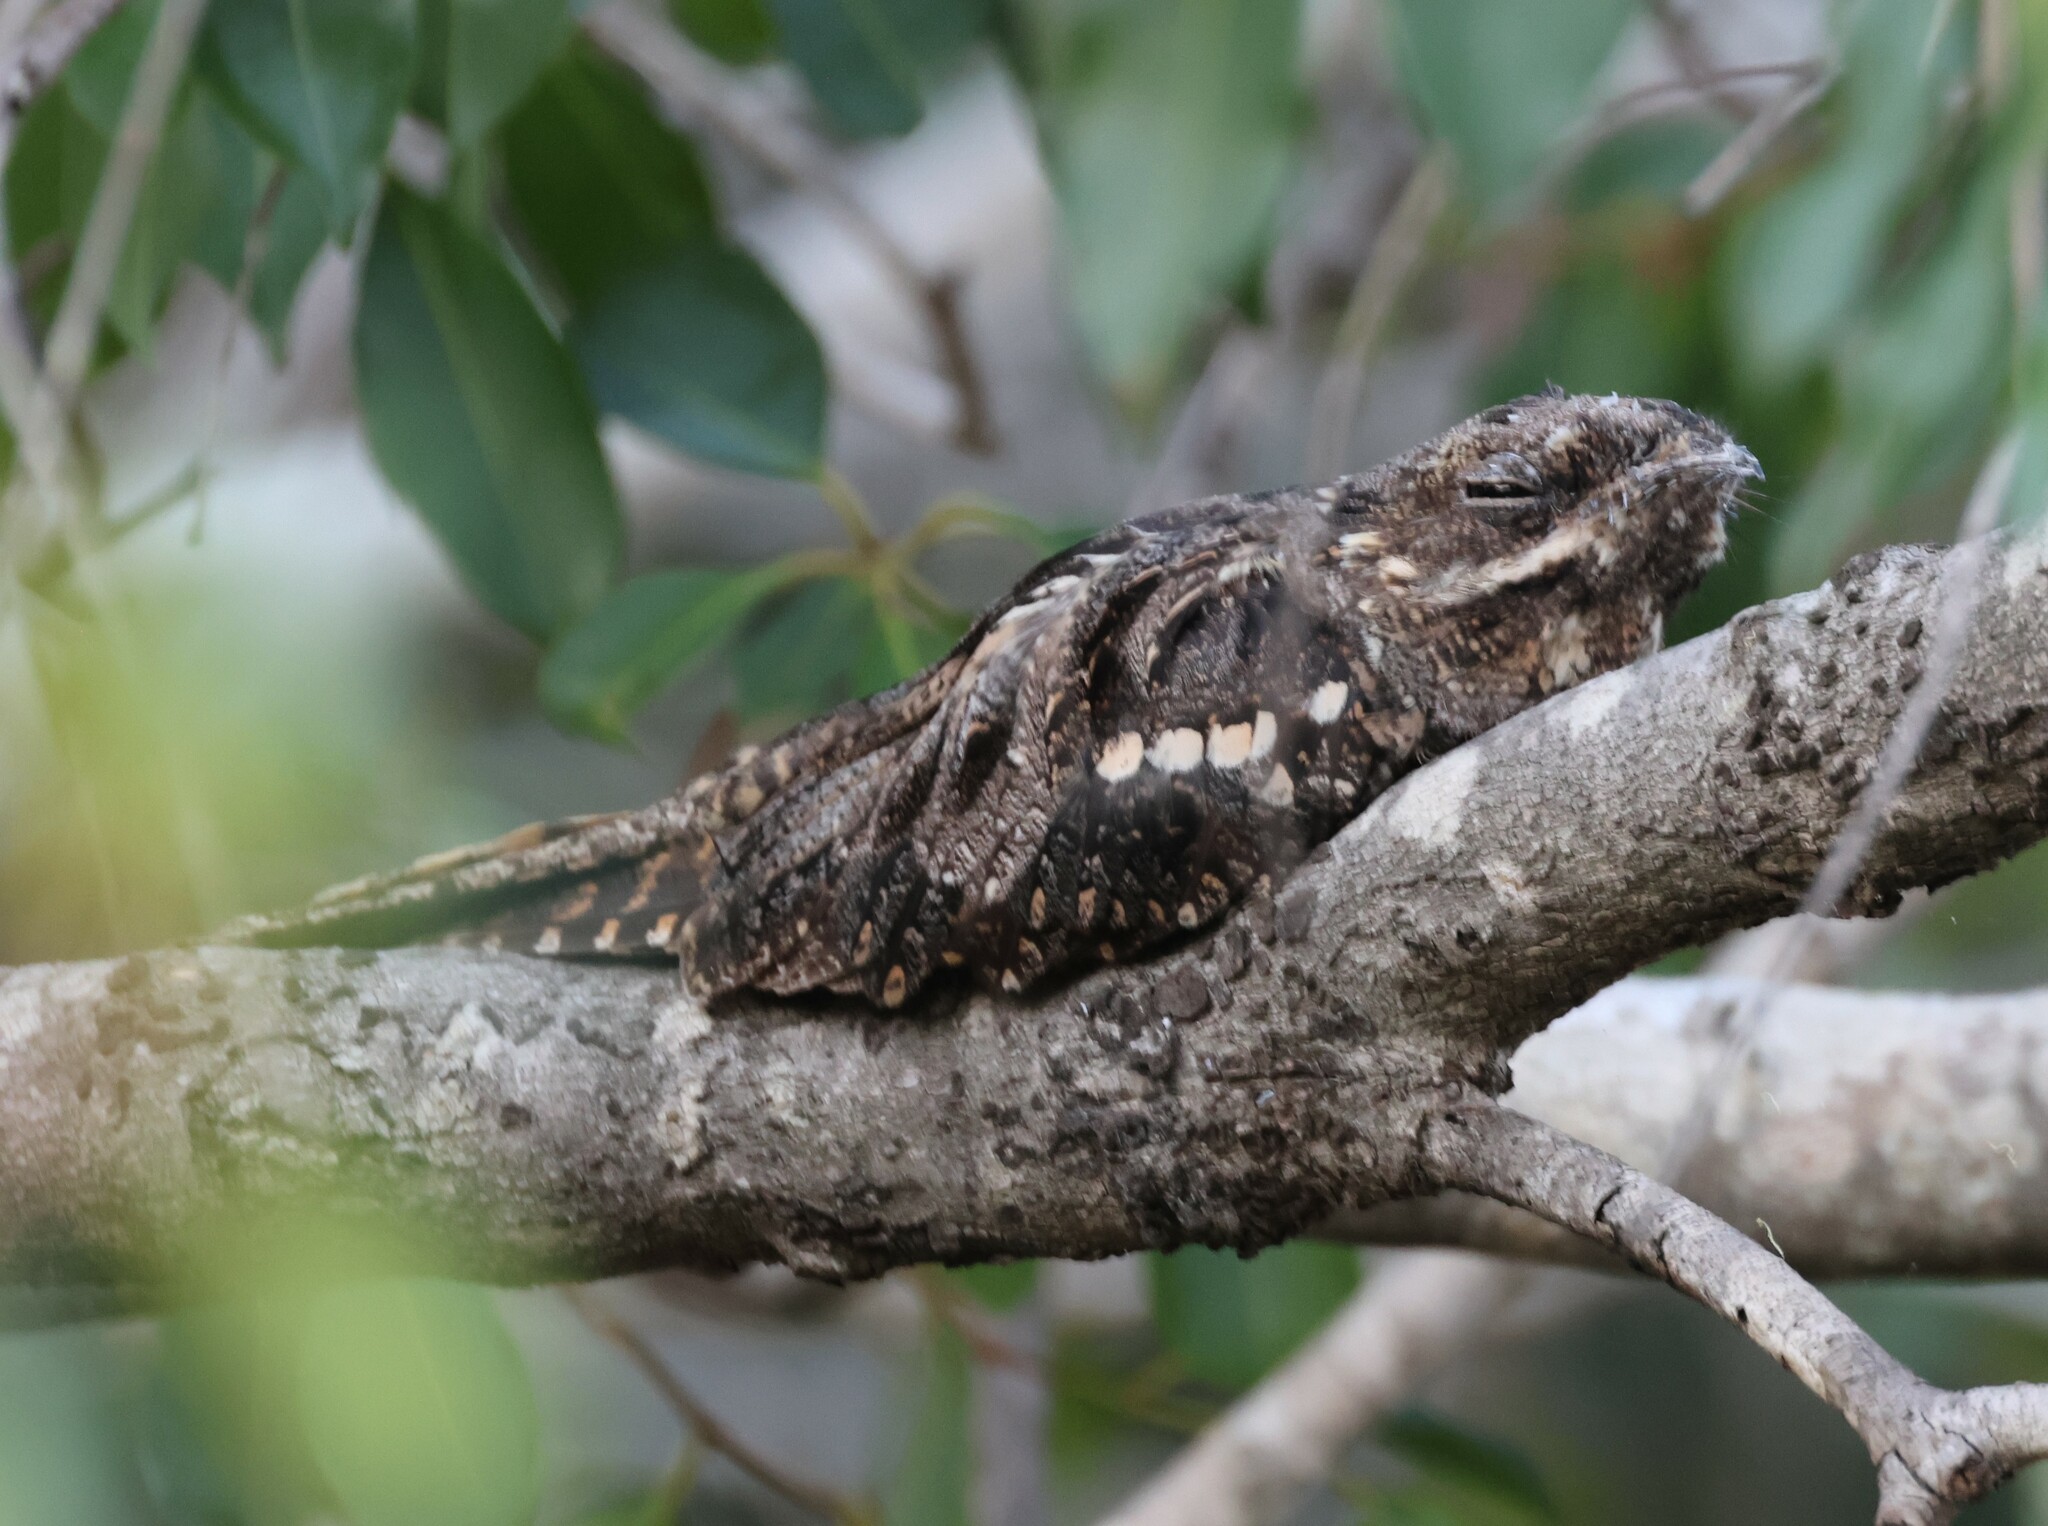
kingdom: Animalia
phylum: Chordata
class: Aves
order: Caprimulgiformes
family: Caprimulgidae
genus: Caprimulgus
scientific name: Caprimulgus europaeus
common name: European nightjar
